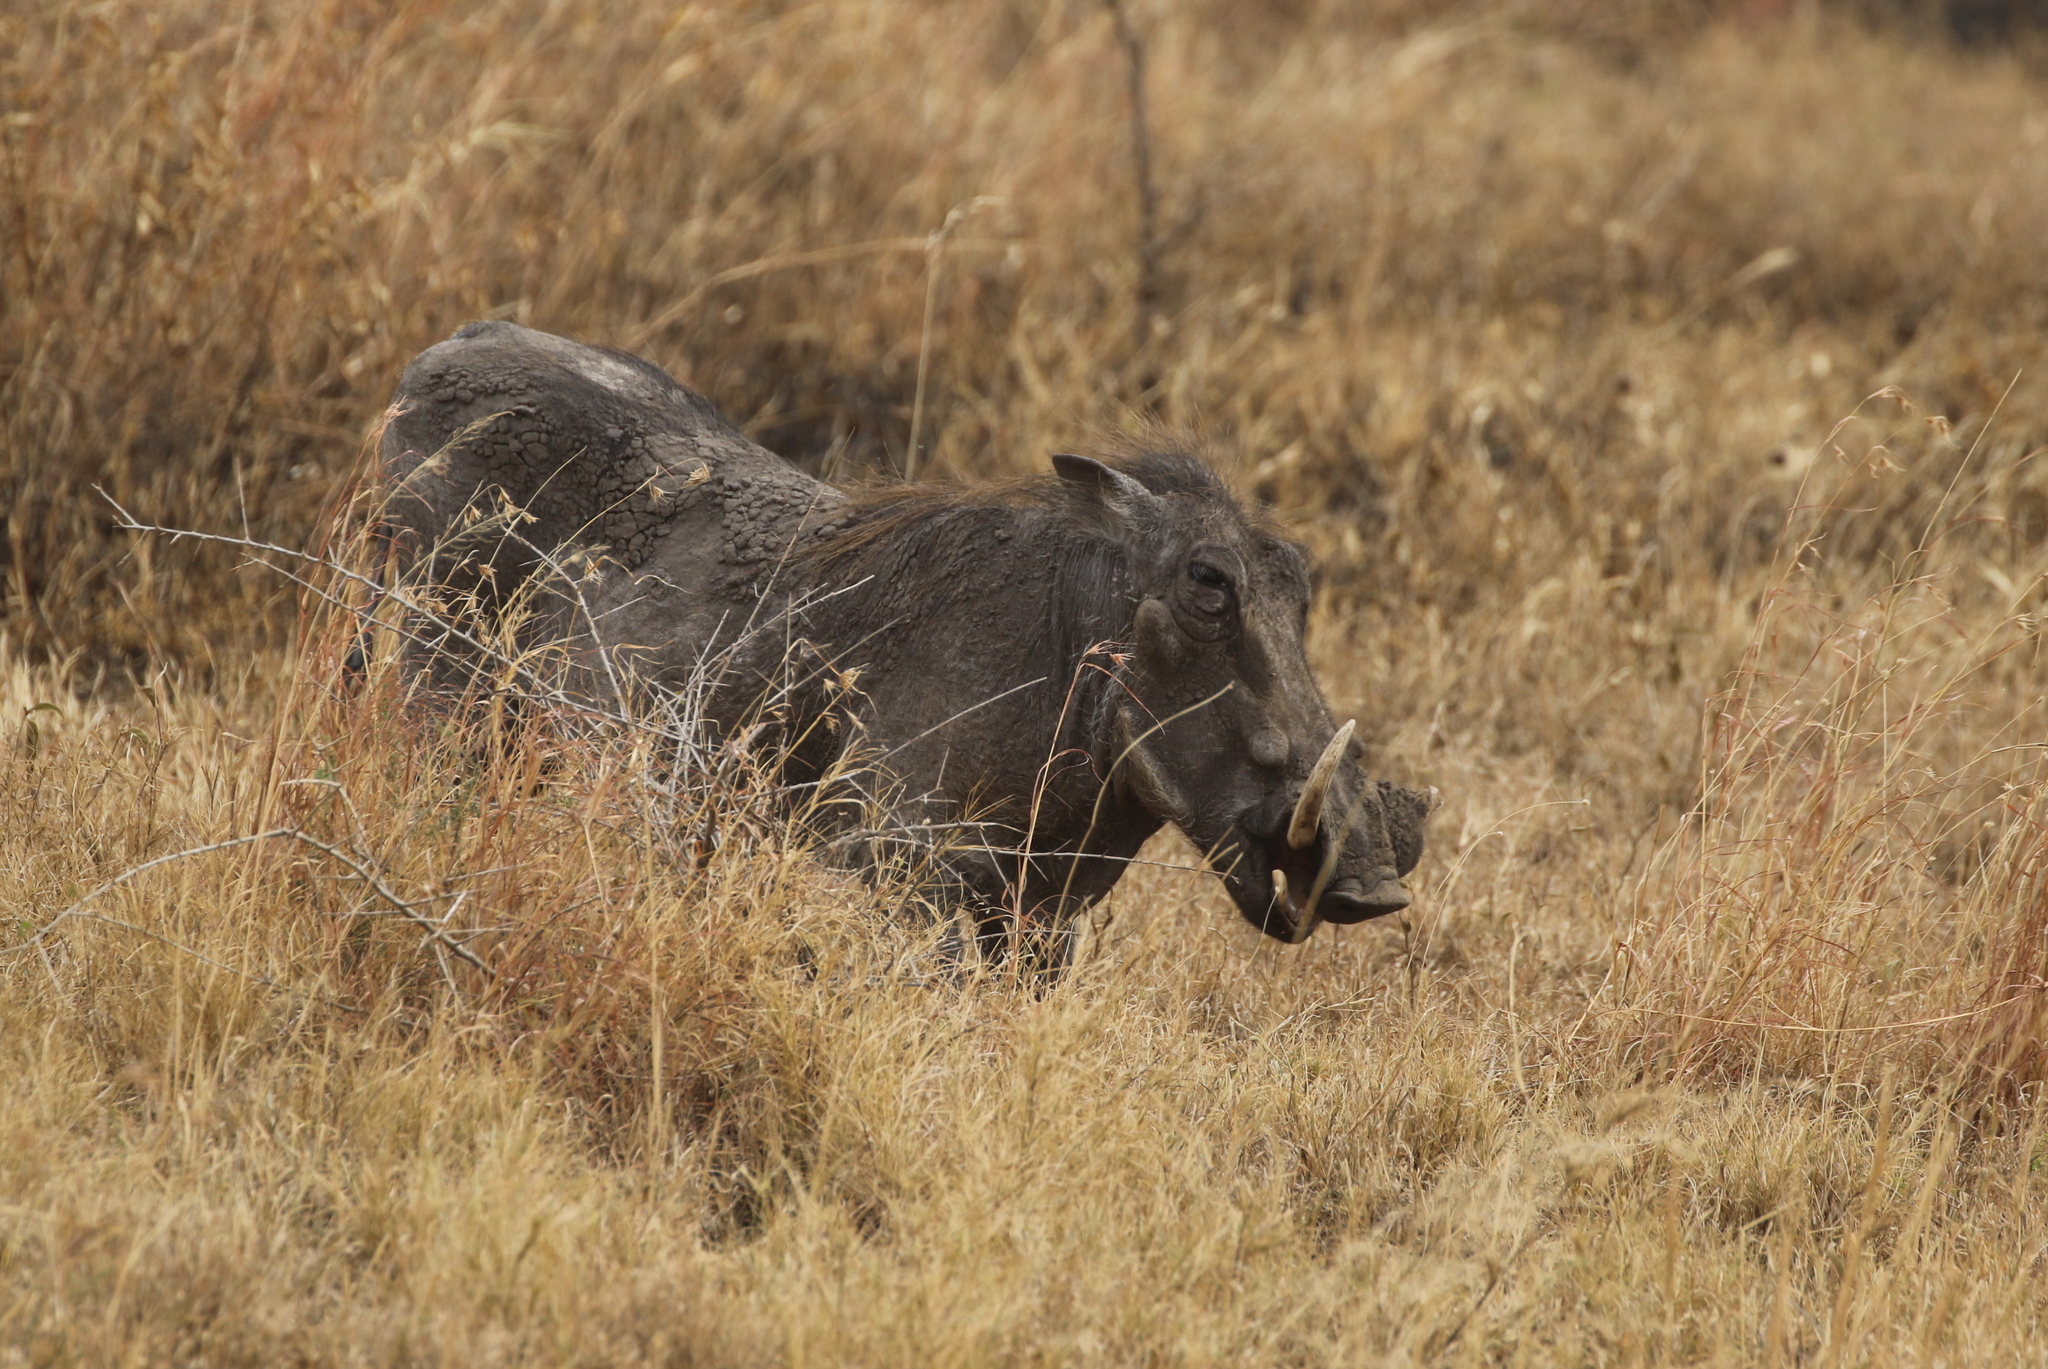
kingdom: Animalia
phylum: Chordata
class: Mammalia
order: Artiodactyla
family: Suidae
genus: Phacochoerus
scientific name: Phacochoerus africanus
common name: Common warthog
